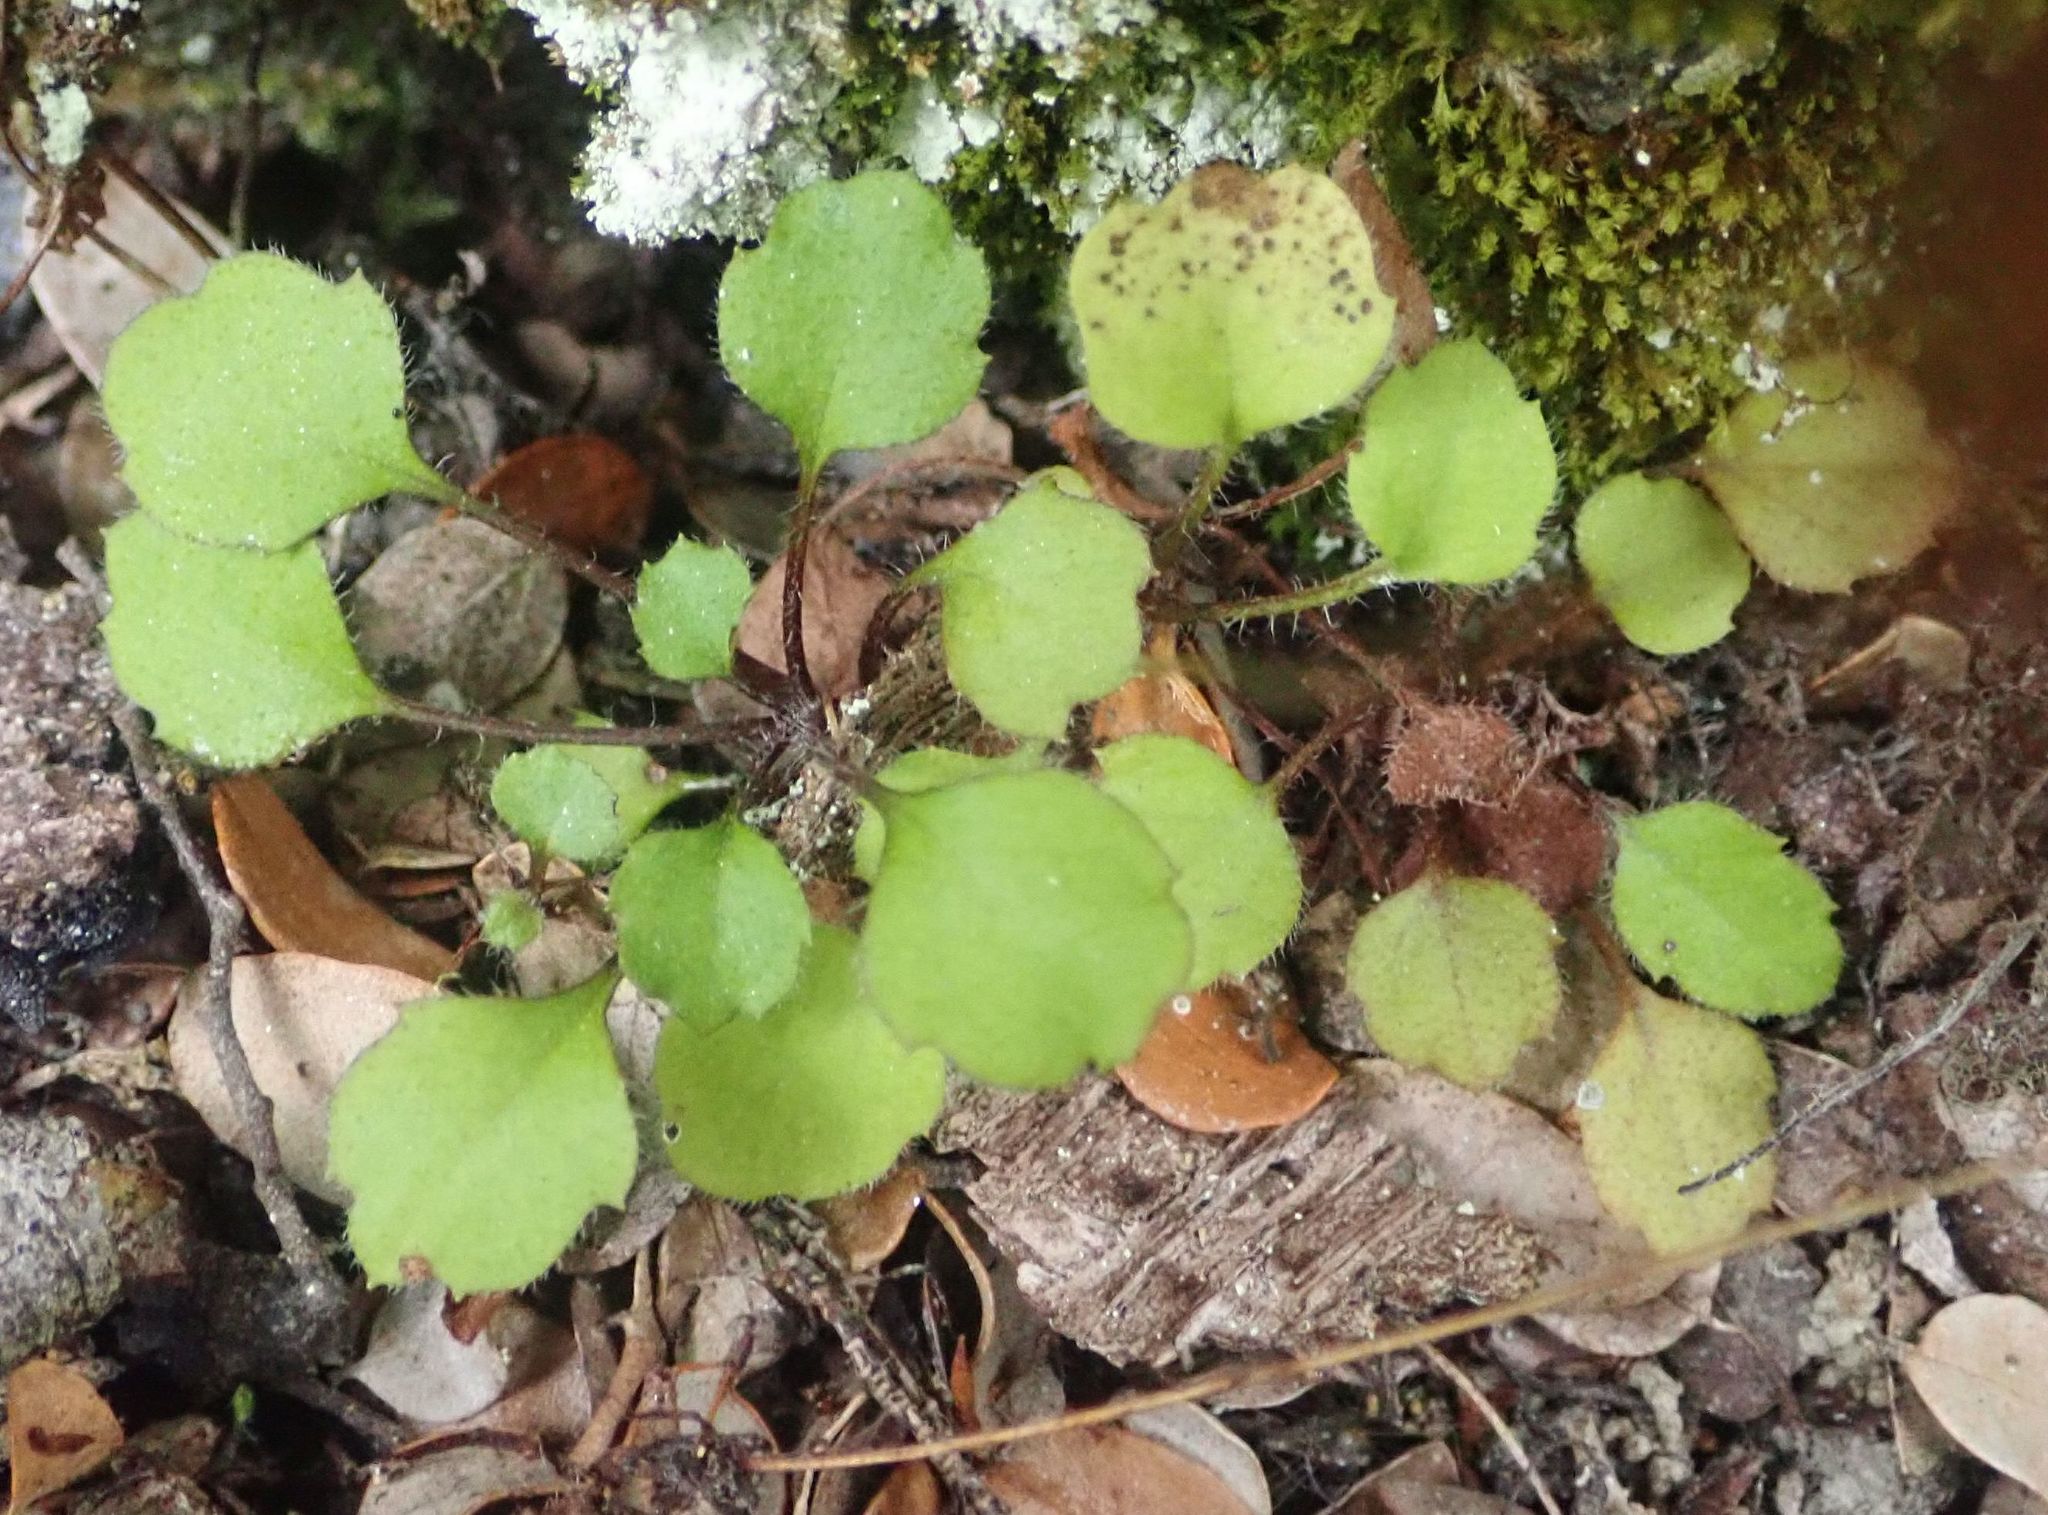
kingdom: Plantae
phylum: Tracheophyta
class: Magnoliopsida
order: Asterales
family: Asteraceae
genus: Lagenophora
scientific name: Lagenophora strangulata
